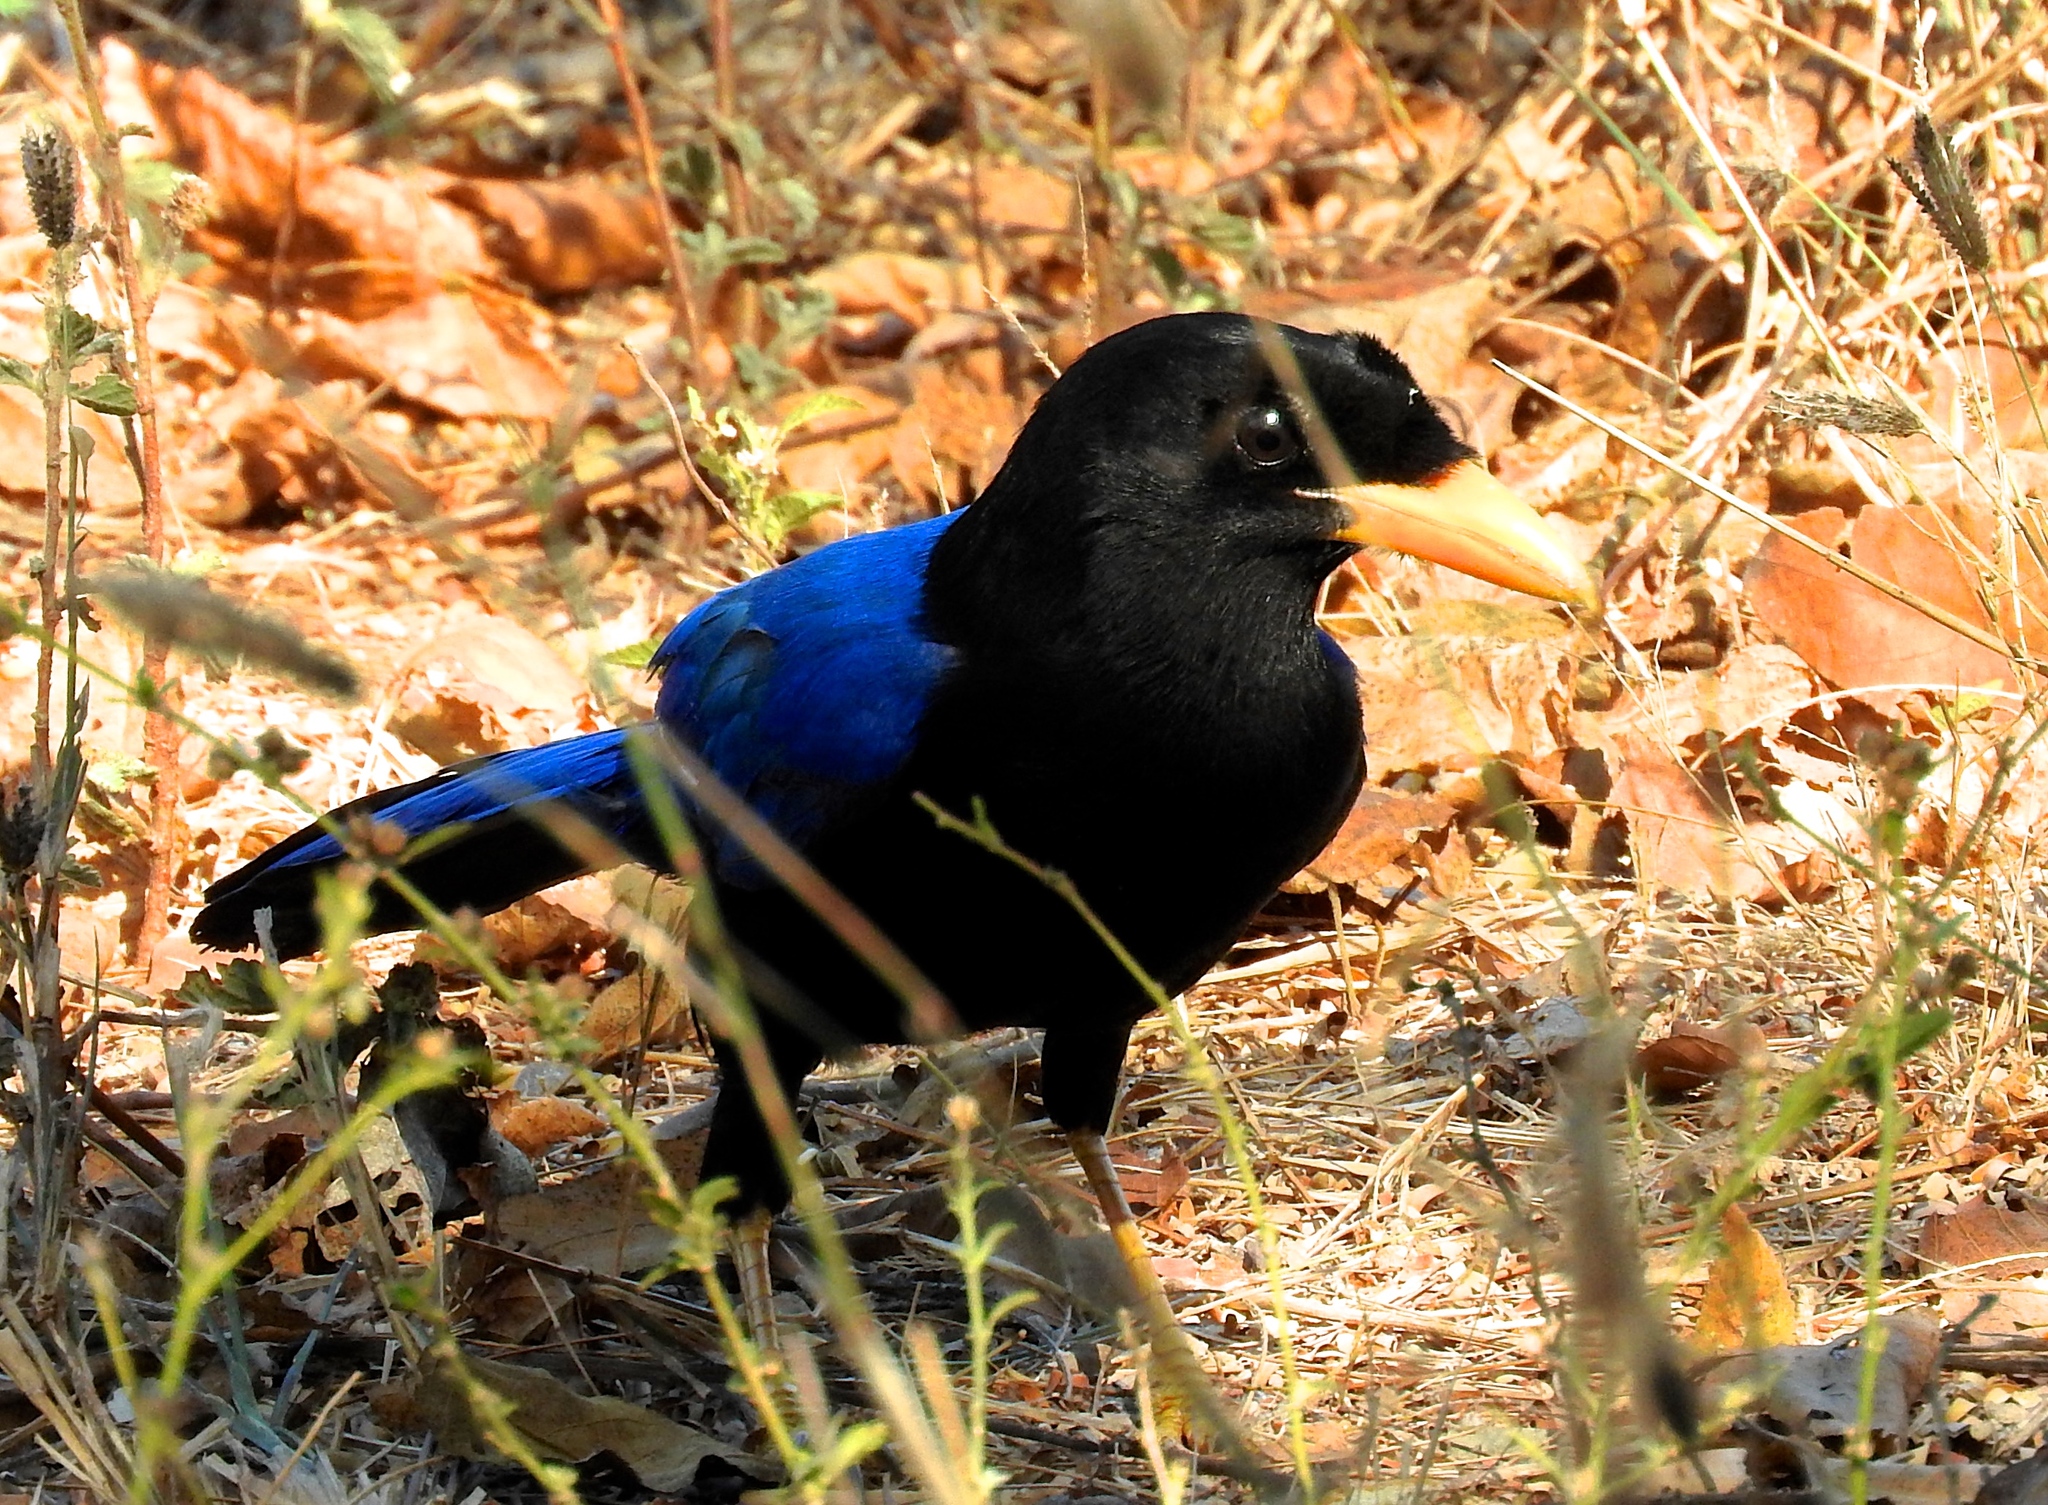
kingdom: Animalia
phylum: Chordata
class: Aves
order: Passeriformes
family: Corvidae
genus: Cyanocorax
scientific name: Cyanocorax beecheii
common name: Purplish-backed jay
